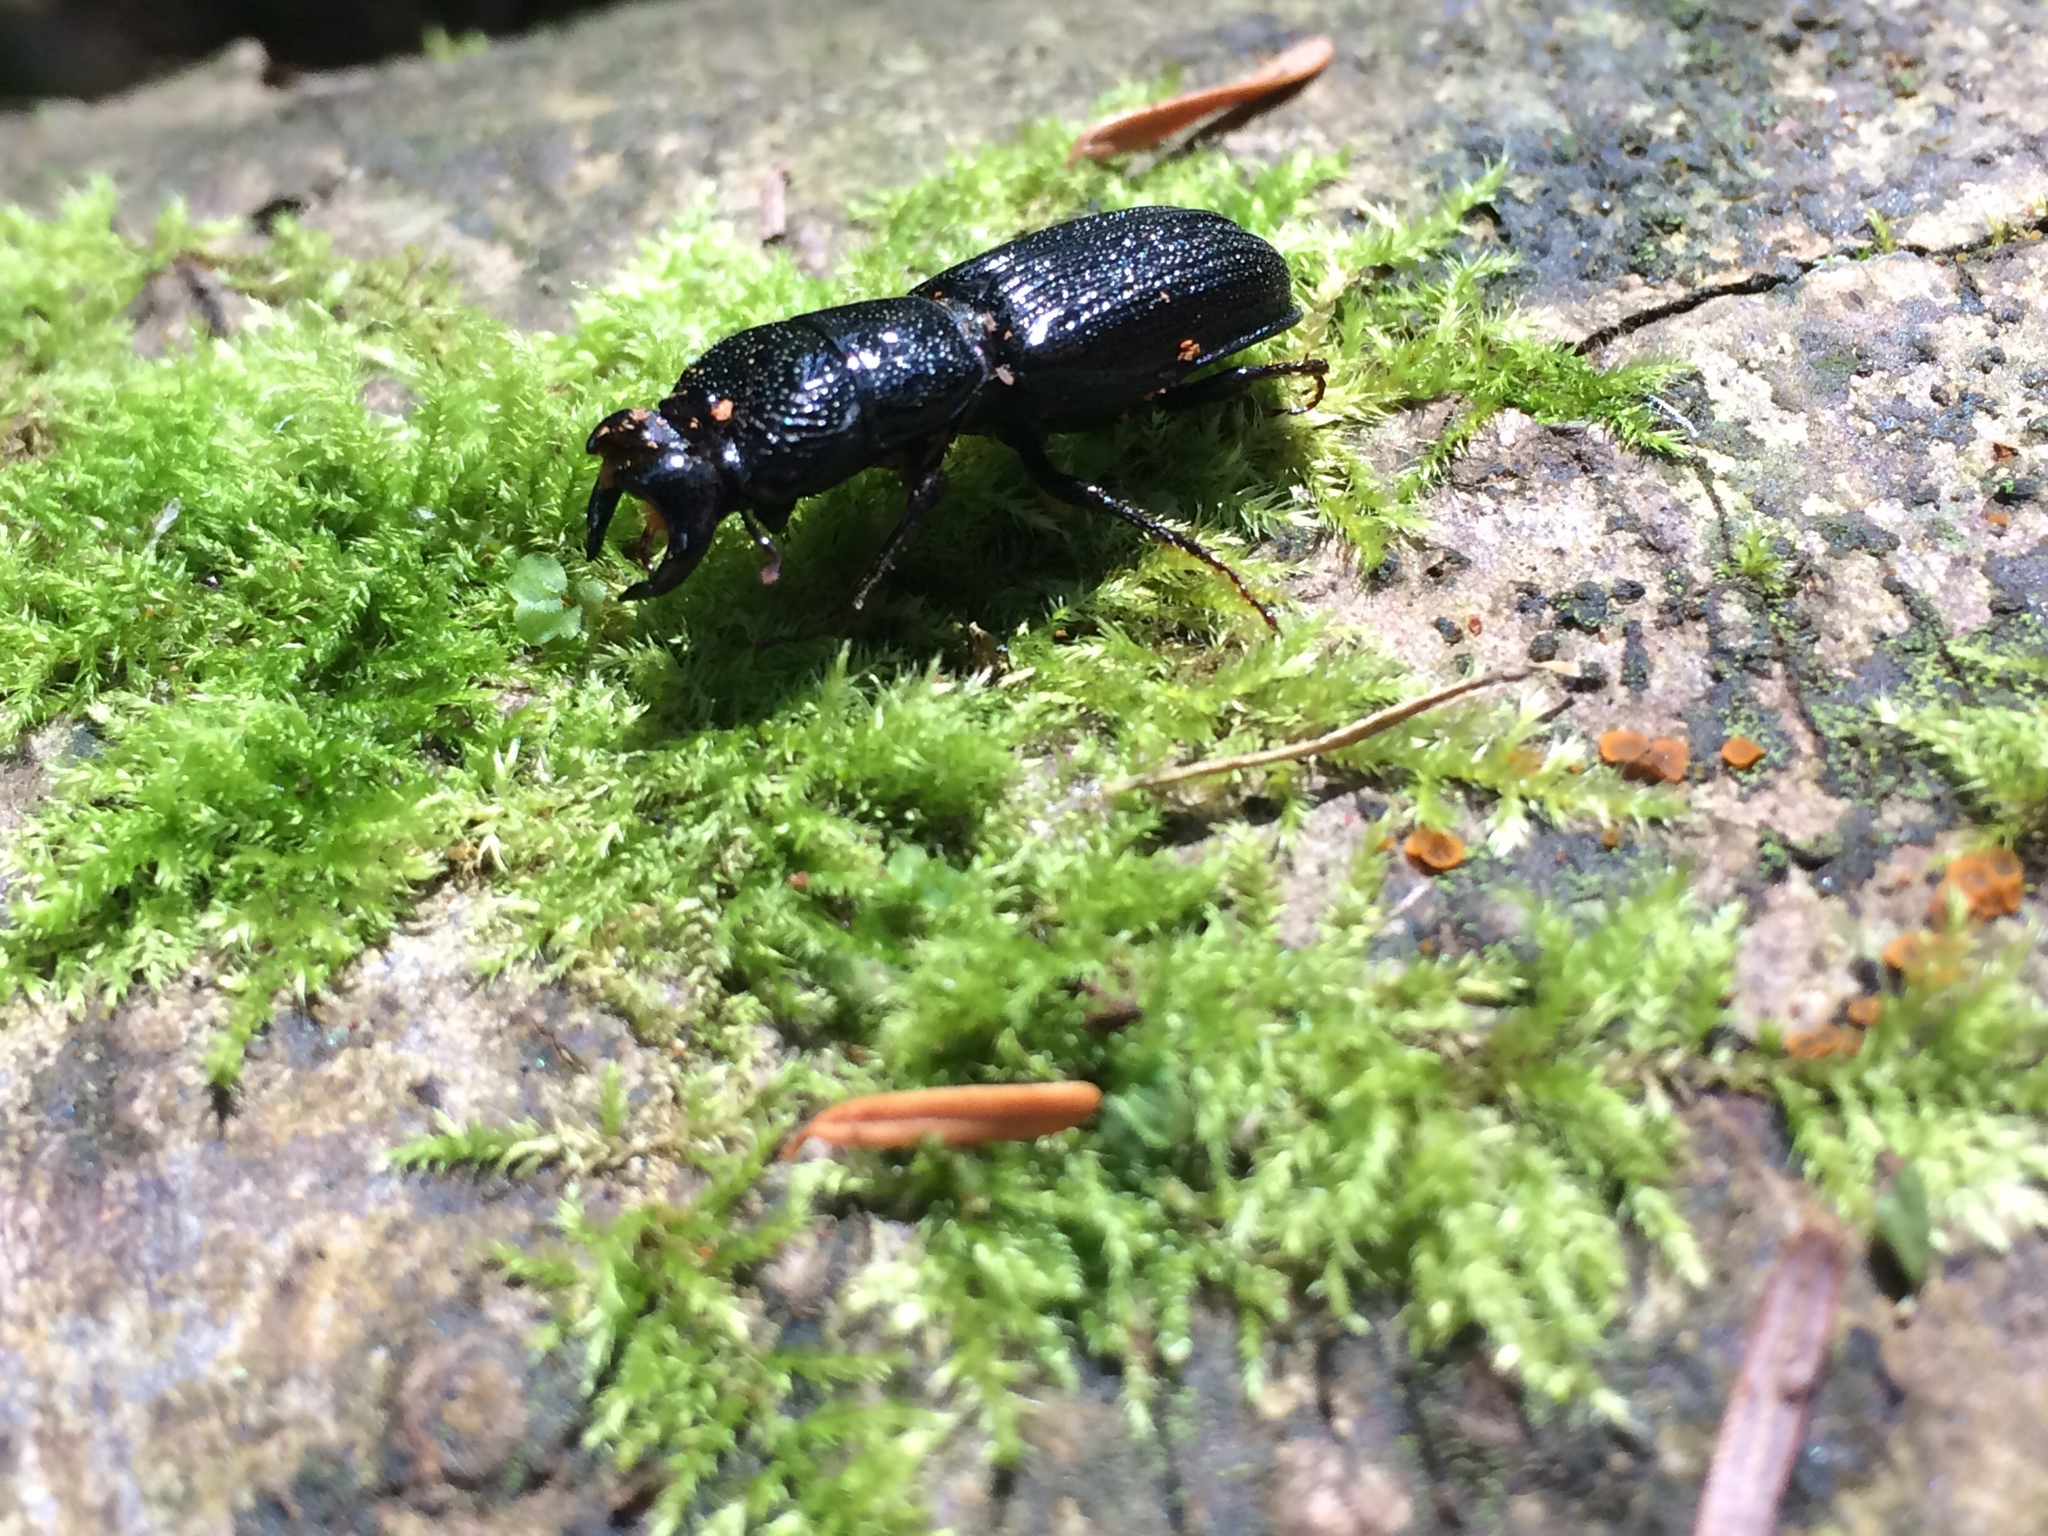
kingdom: Animalia
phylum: Arthropoda
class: Insecta
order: Coleoptera
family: Lucanidae
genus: Ceruchus
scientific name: Ceruchus striatus
